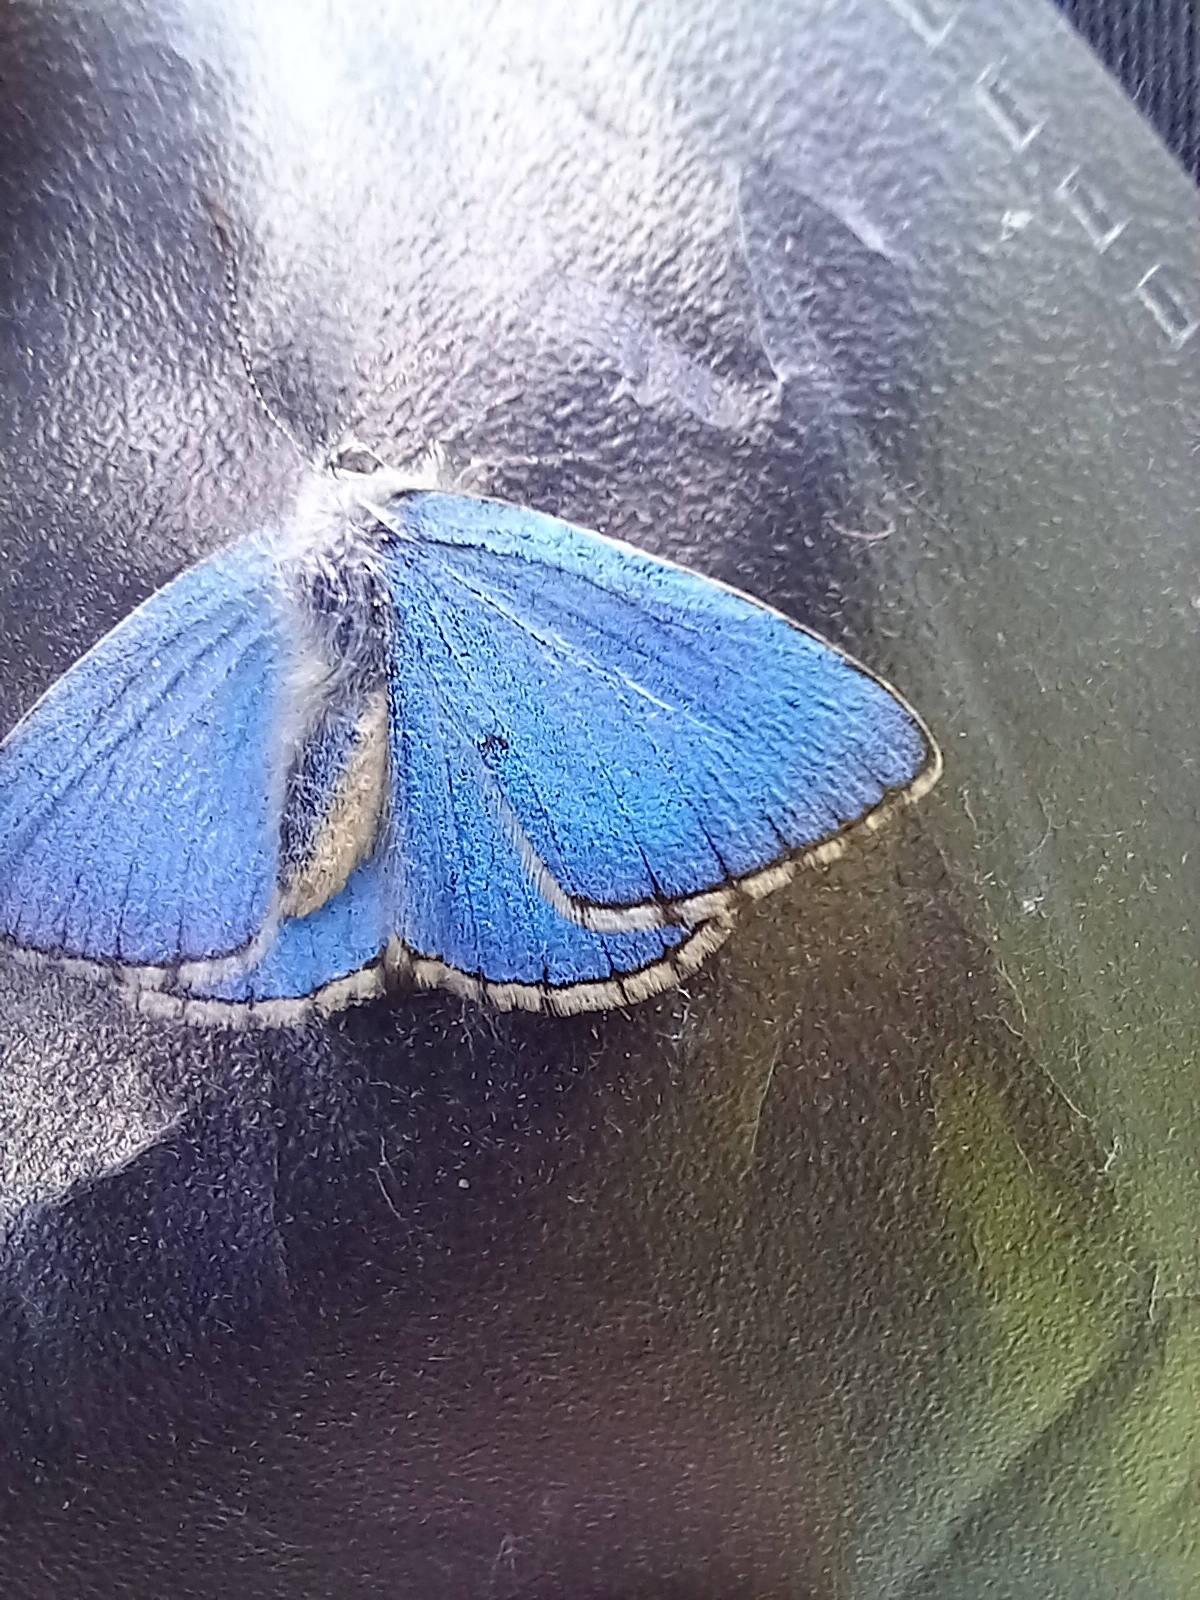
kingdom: Animalia
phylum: Arthropoda
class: Insecta
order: Lepidoptera
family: Lycaenidae
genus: Lysandra
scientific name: Lysandra bellargus
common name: Adonis blue
